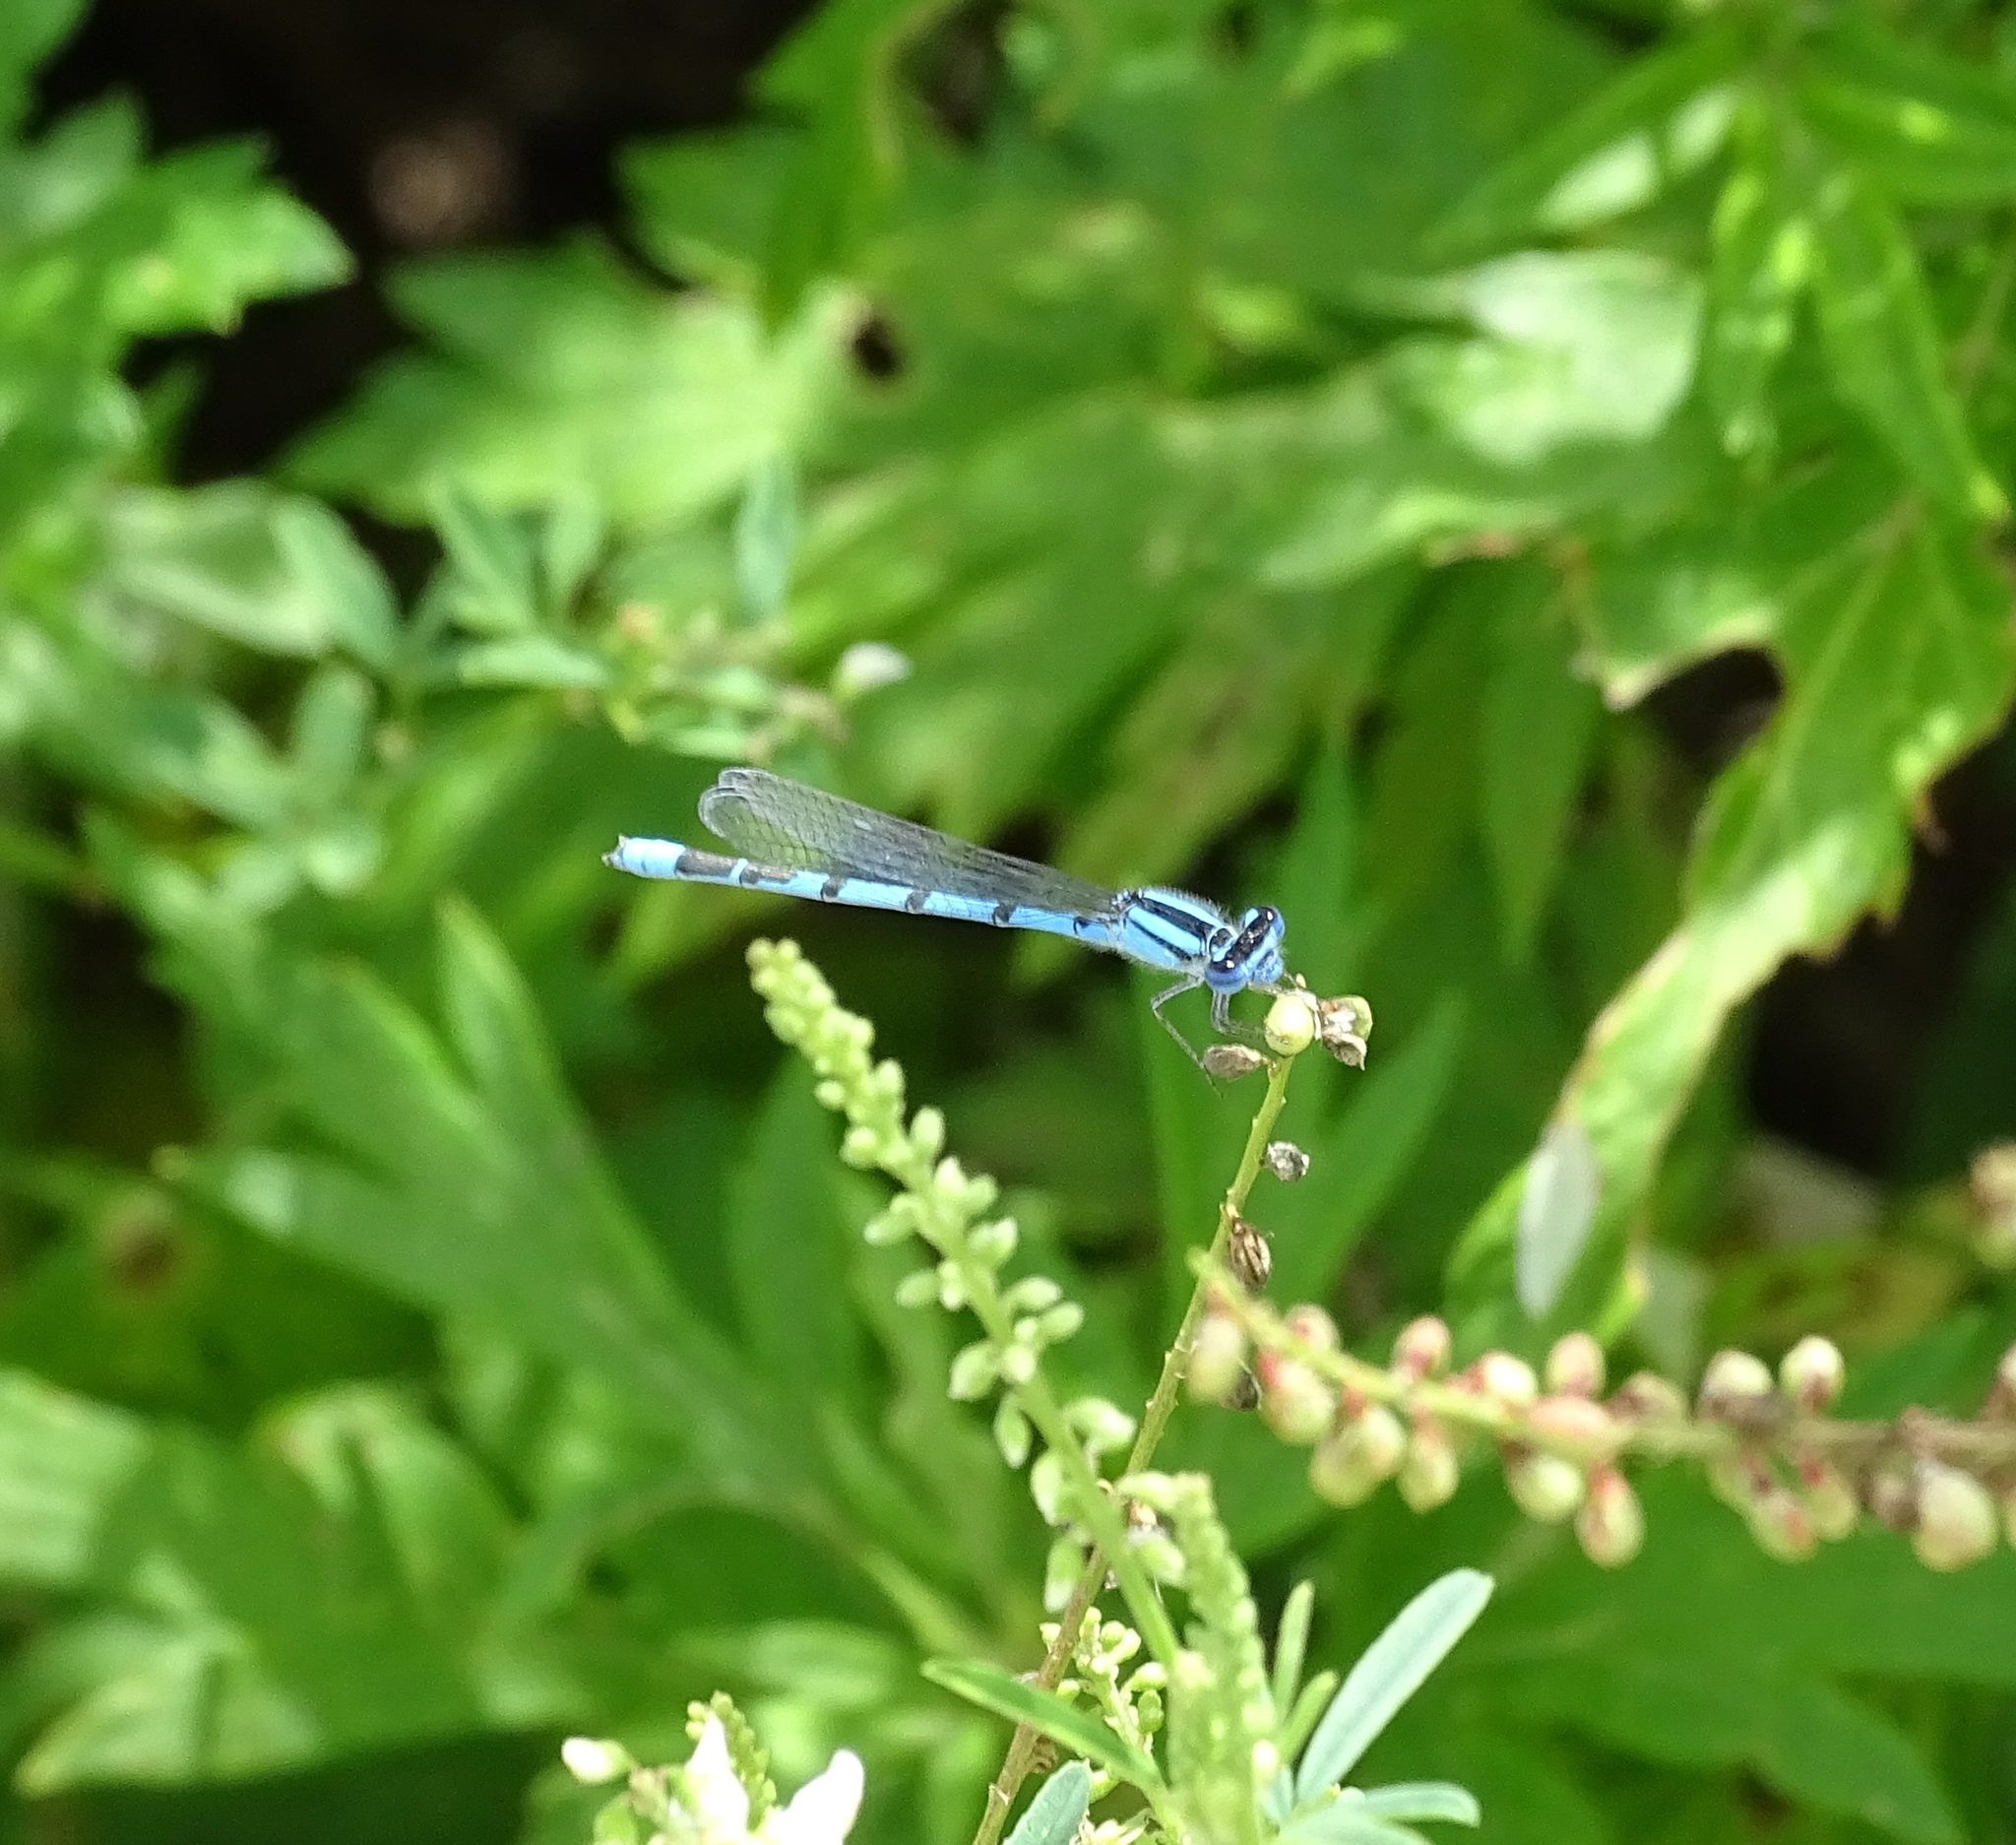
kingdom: Animalia
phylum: Arthropoda
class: Insecta
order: Odonata
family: Coenagrionidae
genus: Enallagma
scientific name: Enallagma civile
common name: Damselfly
